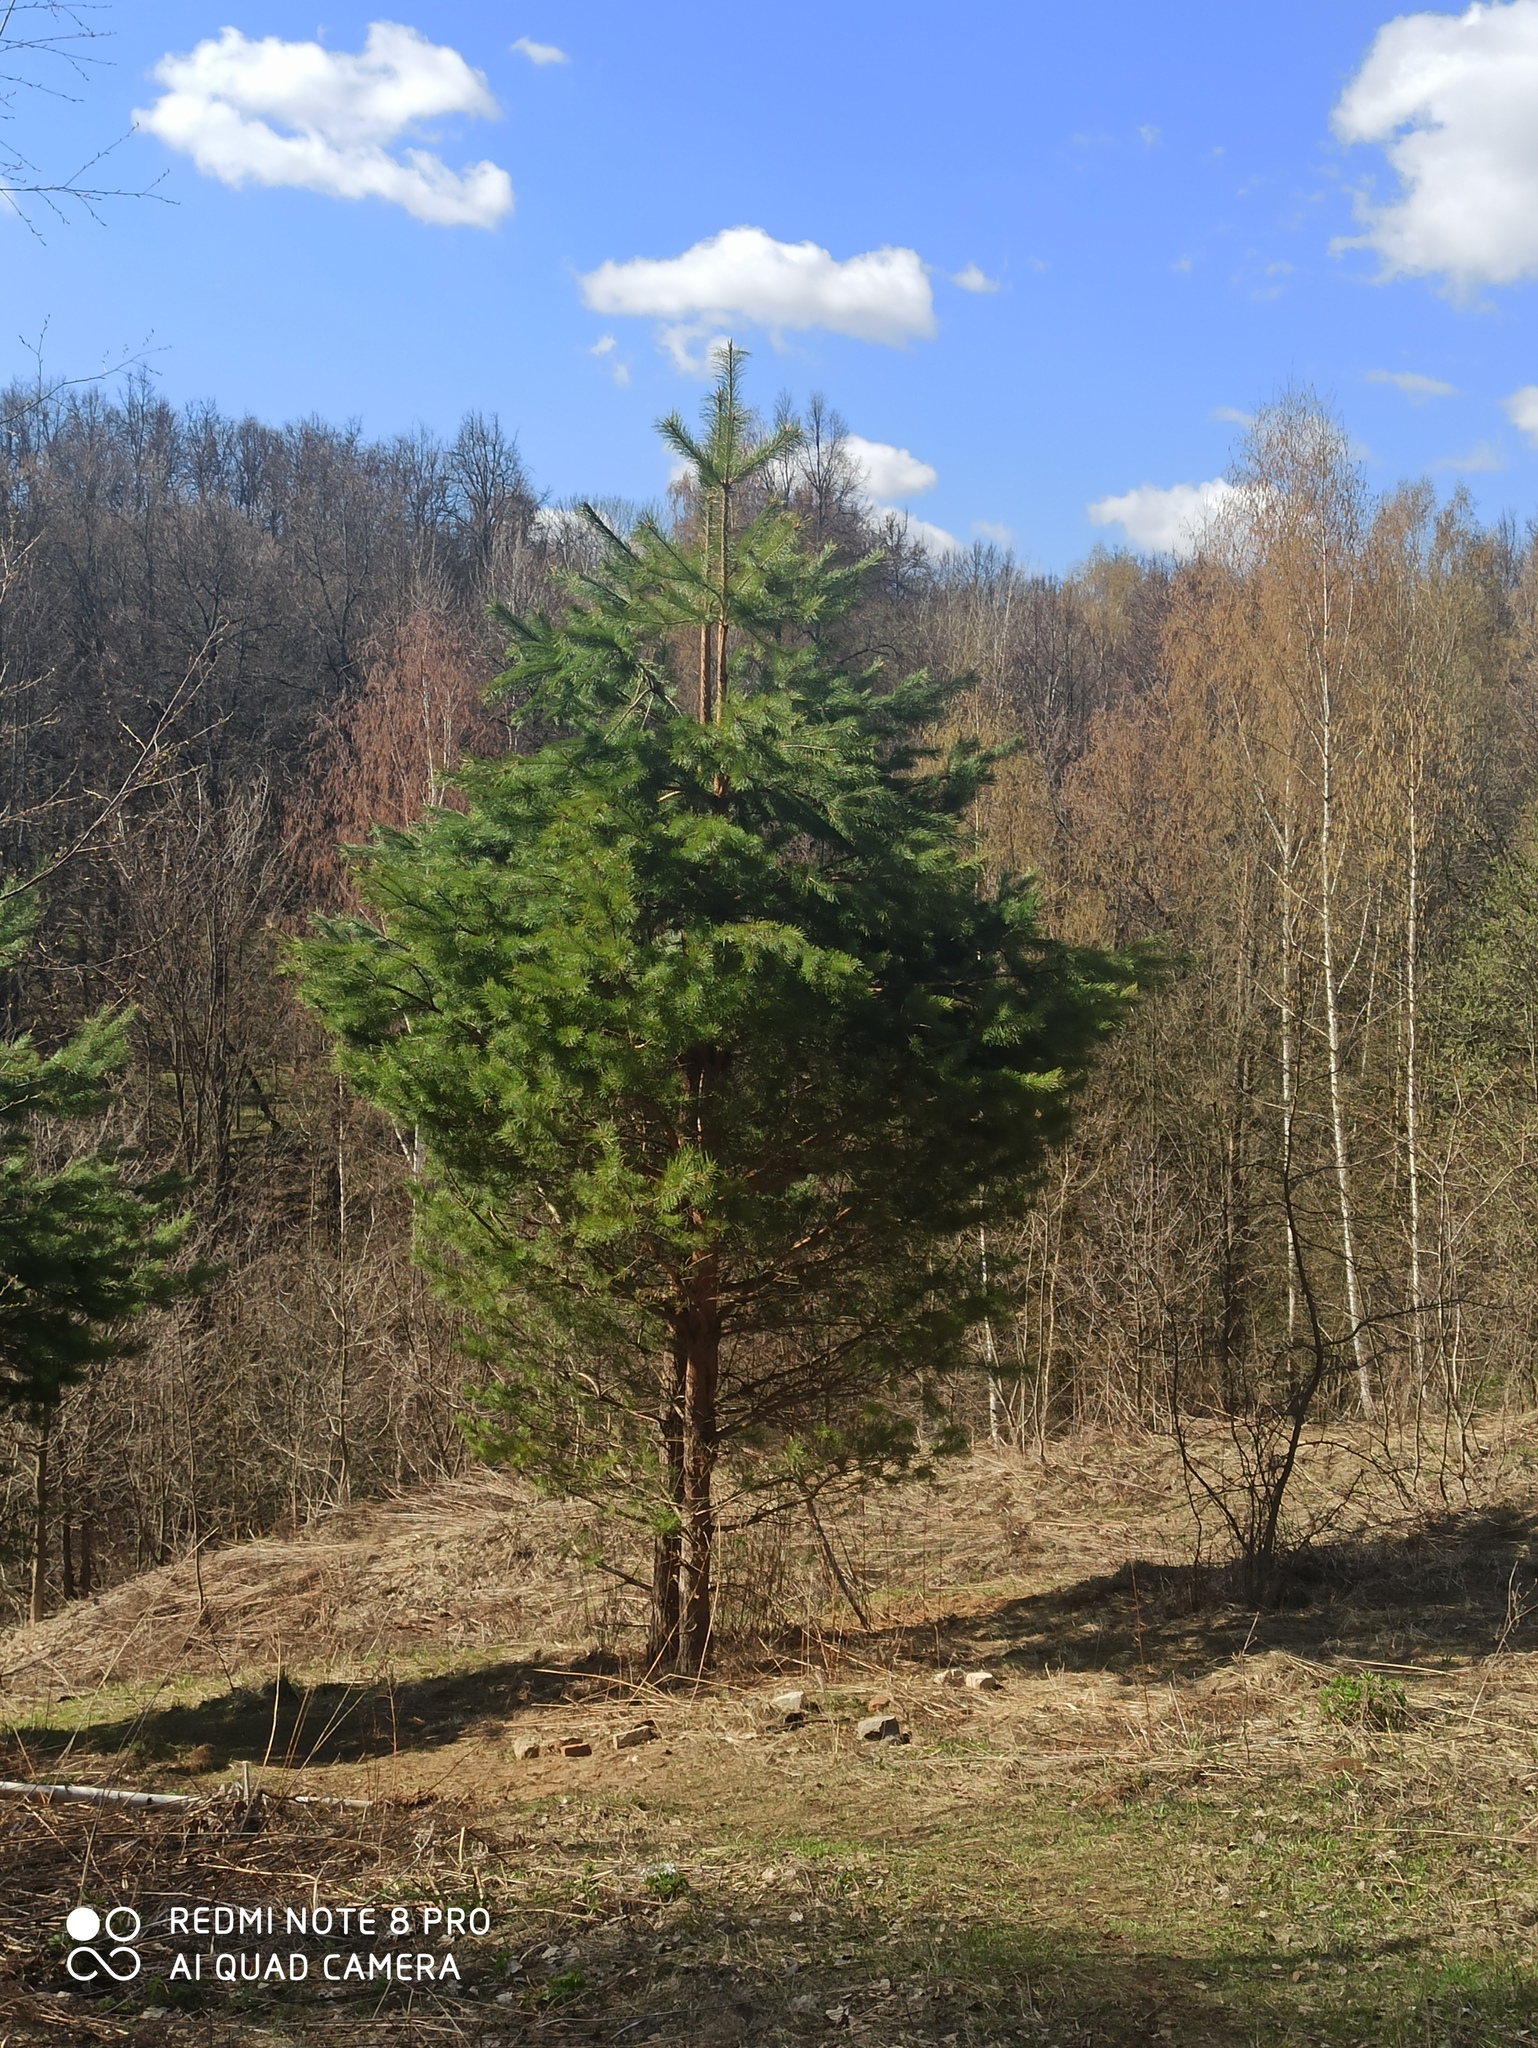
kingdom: Plantae
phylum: Tracheophyta
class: Pinopsida
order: Pinales
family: Pinaceae
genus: Pinus
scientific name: Pinus sylvestris
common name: Scots pine
